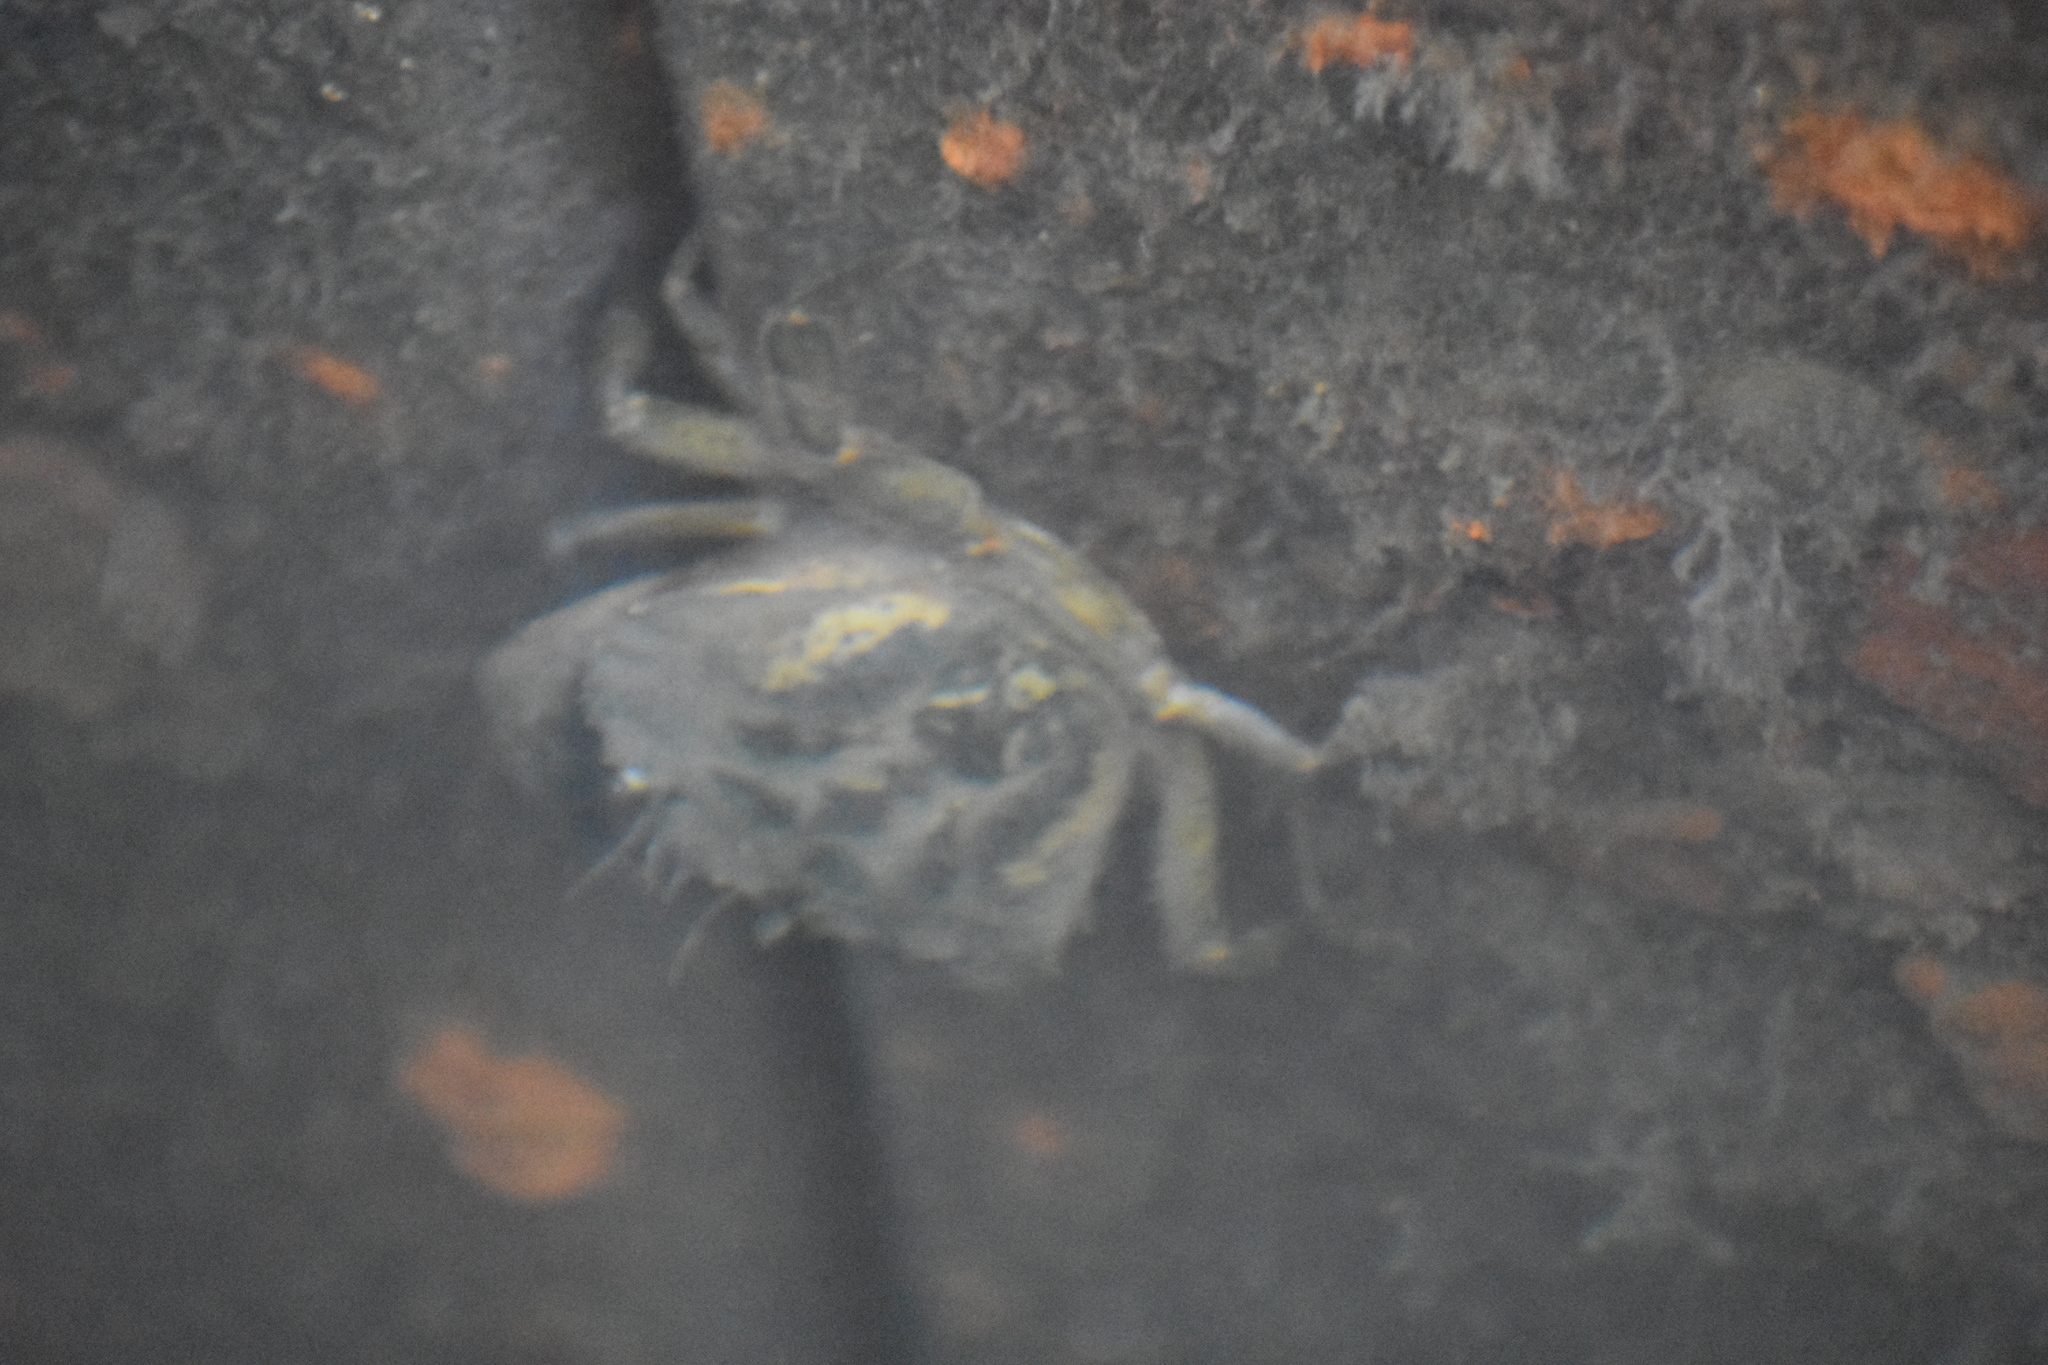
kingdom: Animalia
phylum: Arthropoda
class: Malacostraca
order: Decapoda
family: Carcinidae
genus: Carcinus
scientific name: Carcinus maenas
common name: European green crab
